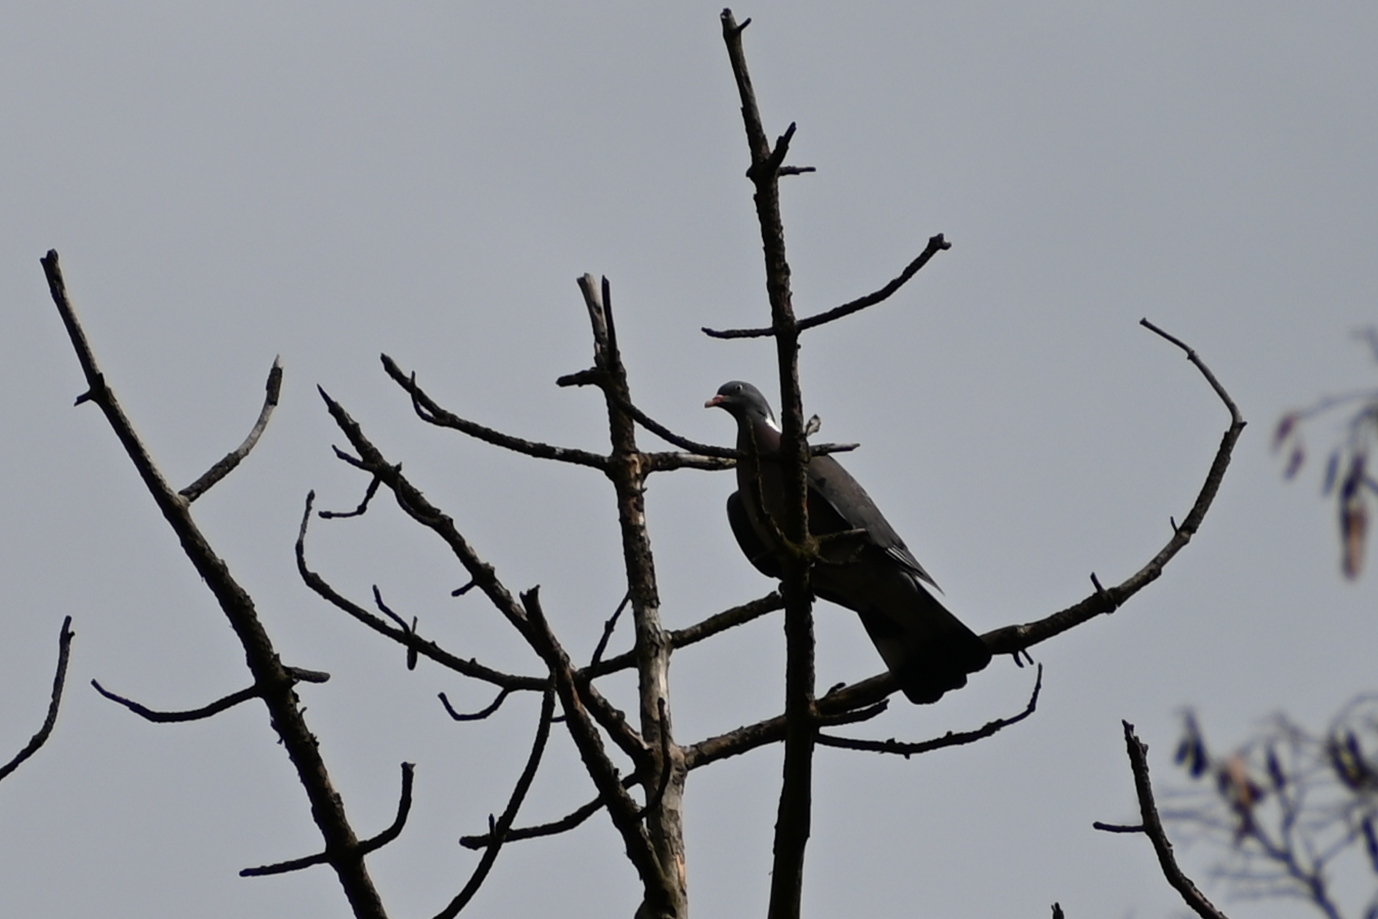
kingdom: Animalia
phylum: Chordata
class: Aves
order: Columbiformes
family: Columbidae
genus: Columba
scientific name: Columba palumbus
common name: Common wood pigeon
